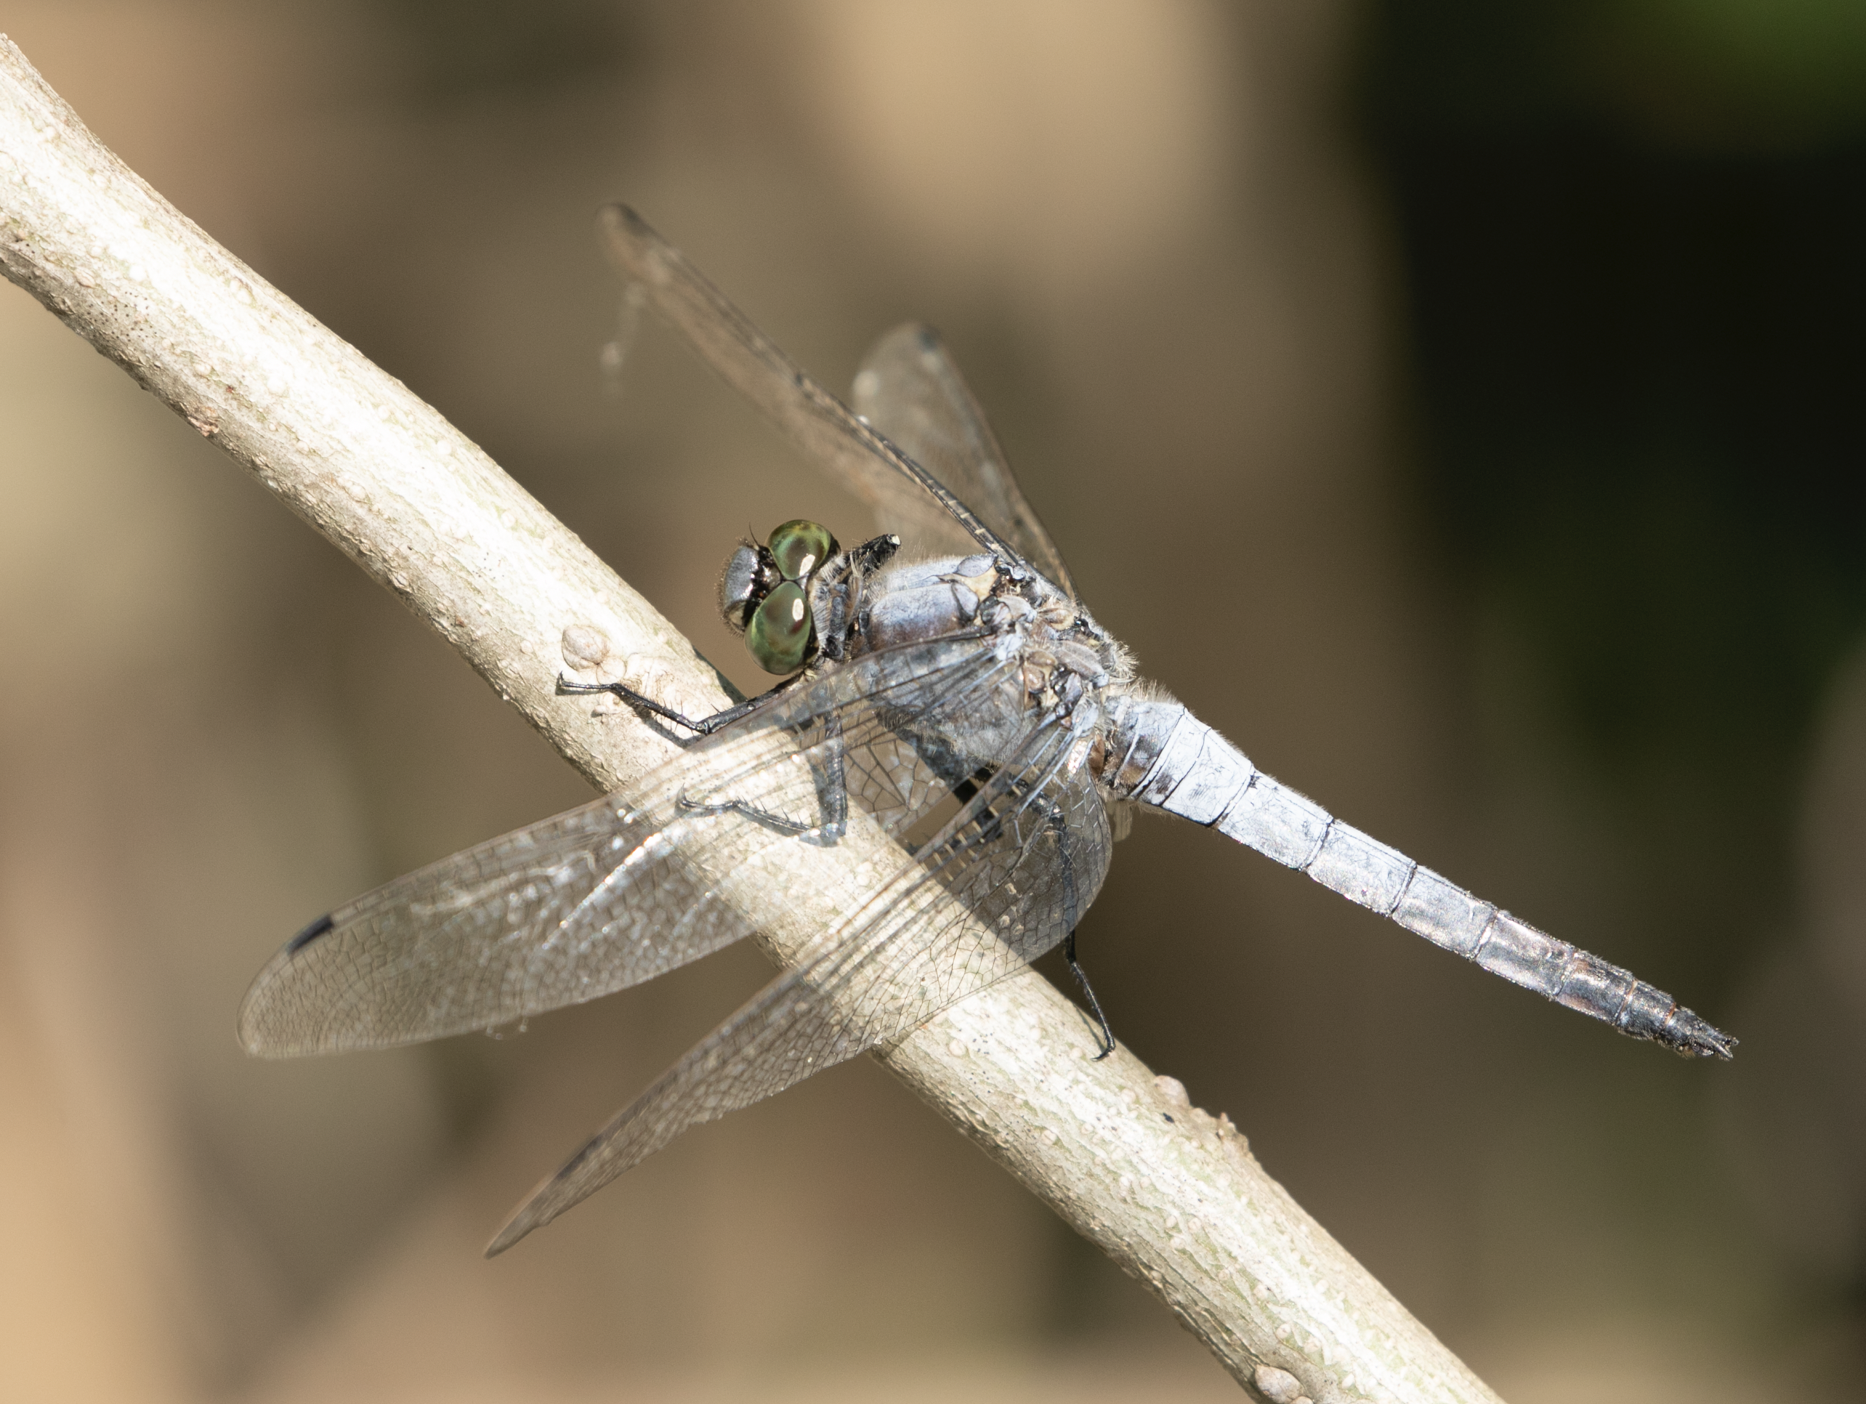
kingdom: Animalia
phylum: Arthropoda
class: Insecta
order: Odonata
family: Libellulidae
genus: Orthetrum
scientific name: Orthetrum cancellatum
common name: Black-tailed skimmer
